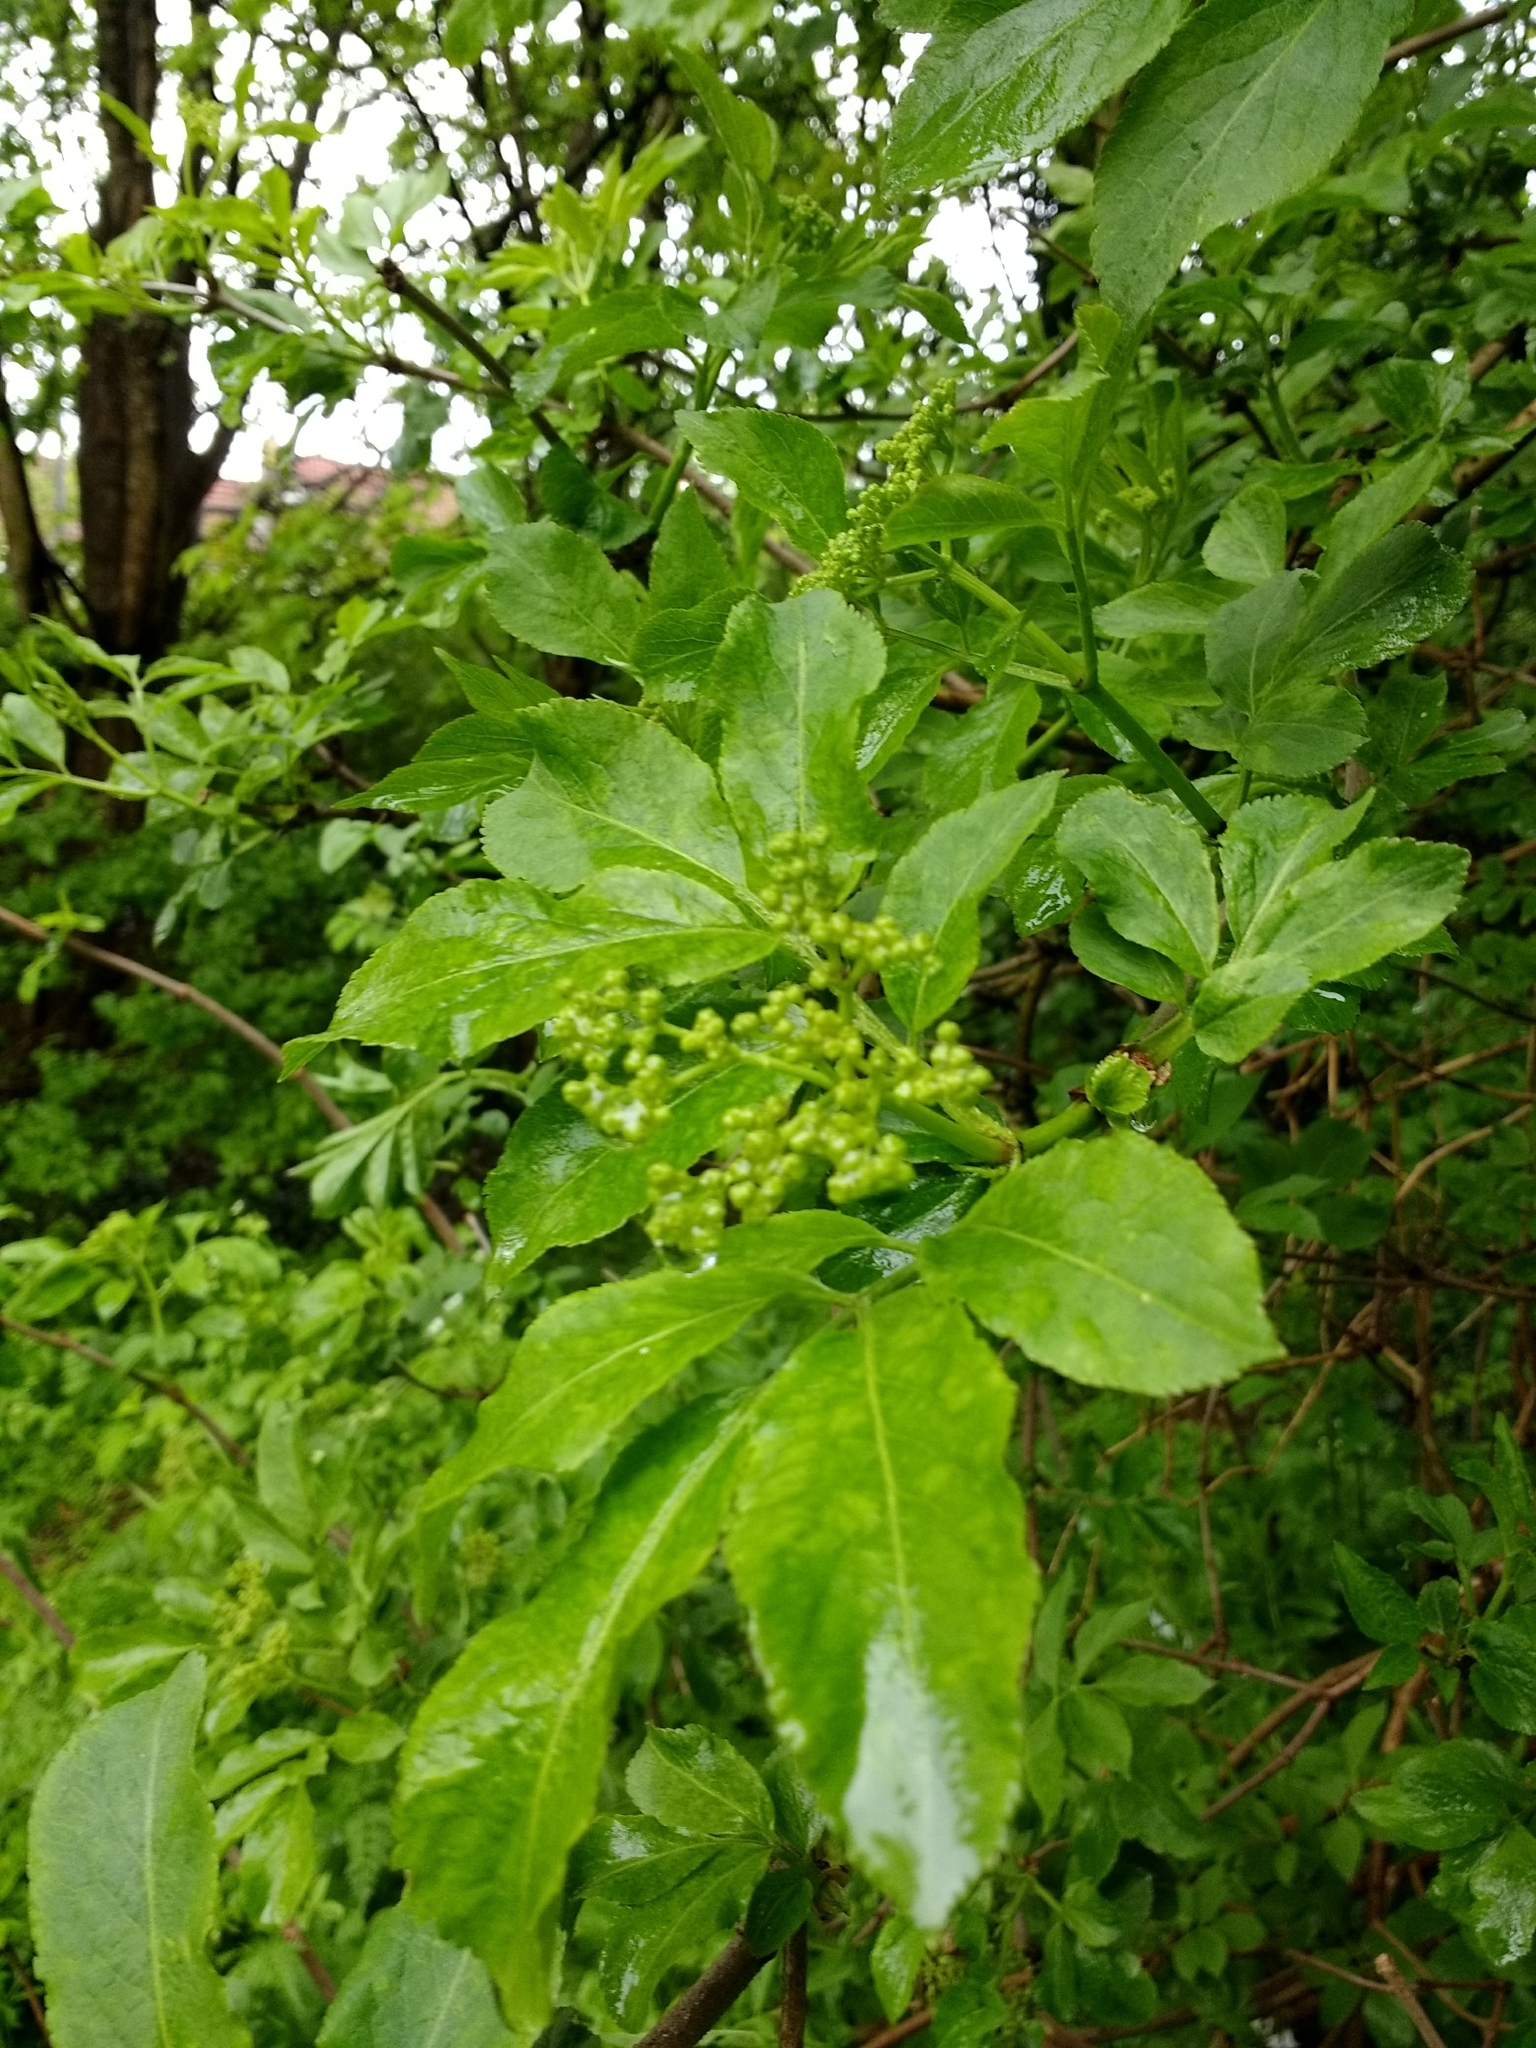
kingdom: Plantae
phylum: Tracheophyta
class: Magnoliopsida
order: Dipsacales
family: Viburnaceae
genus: Sambucus
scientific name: Sambucus nigra
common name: Elder
